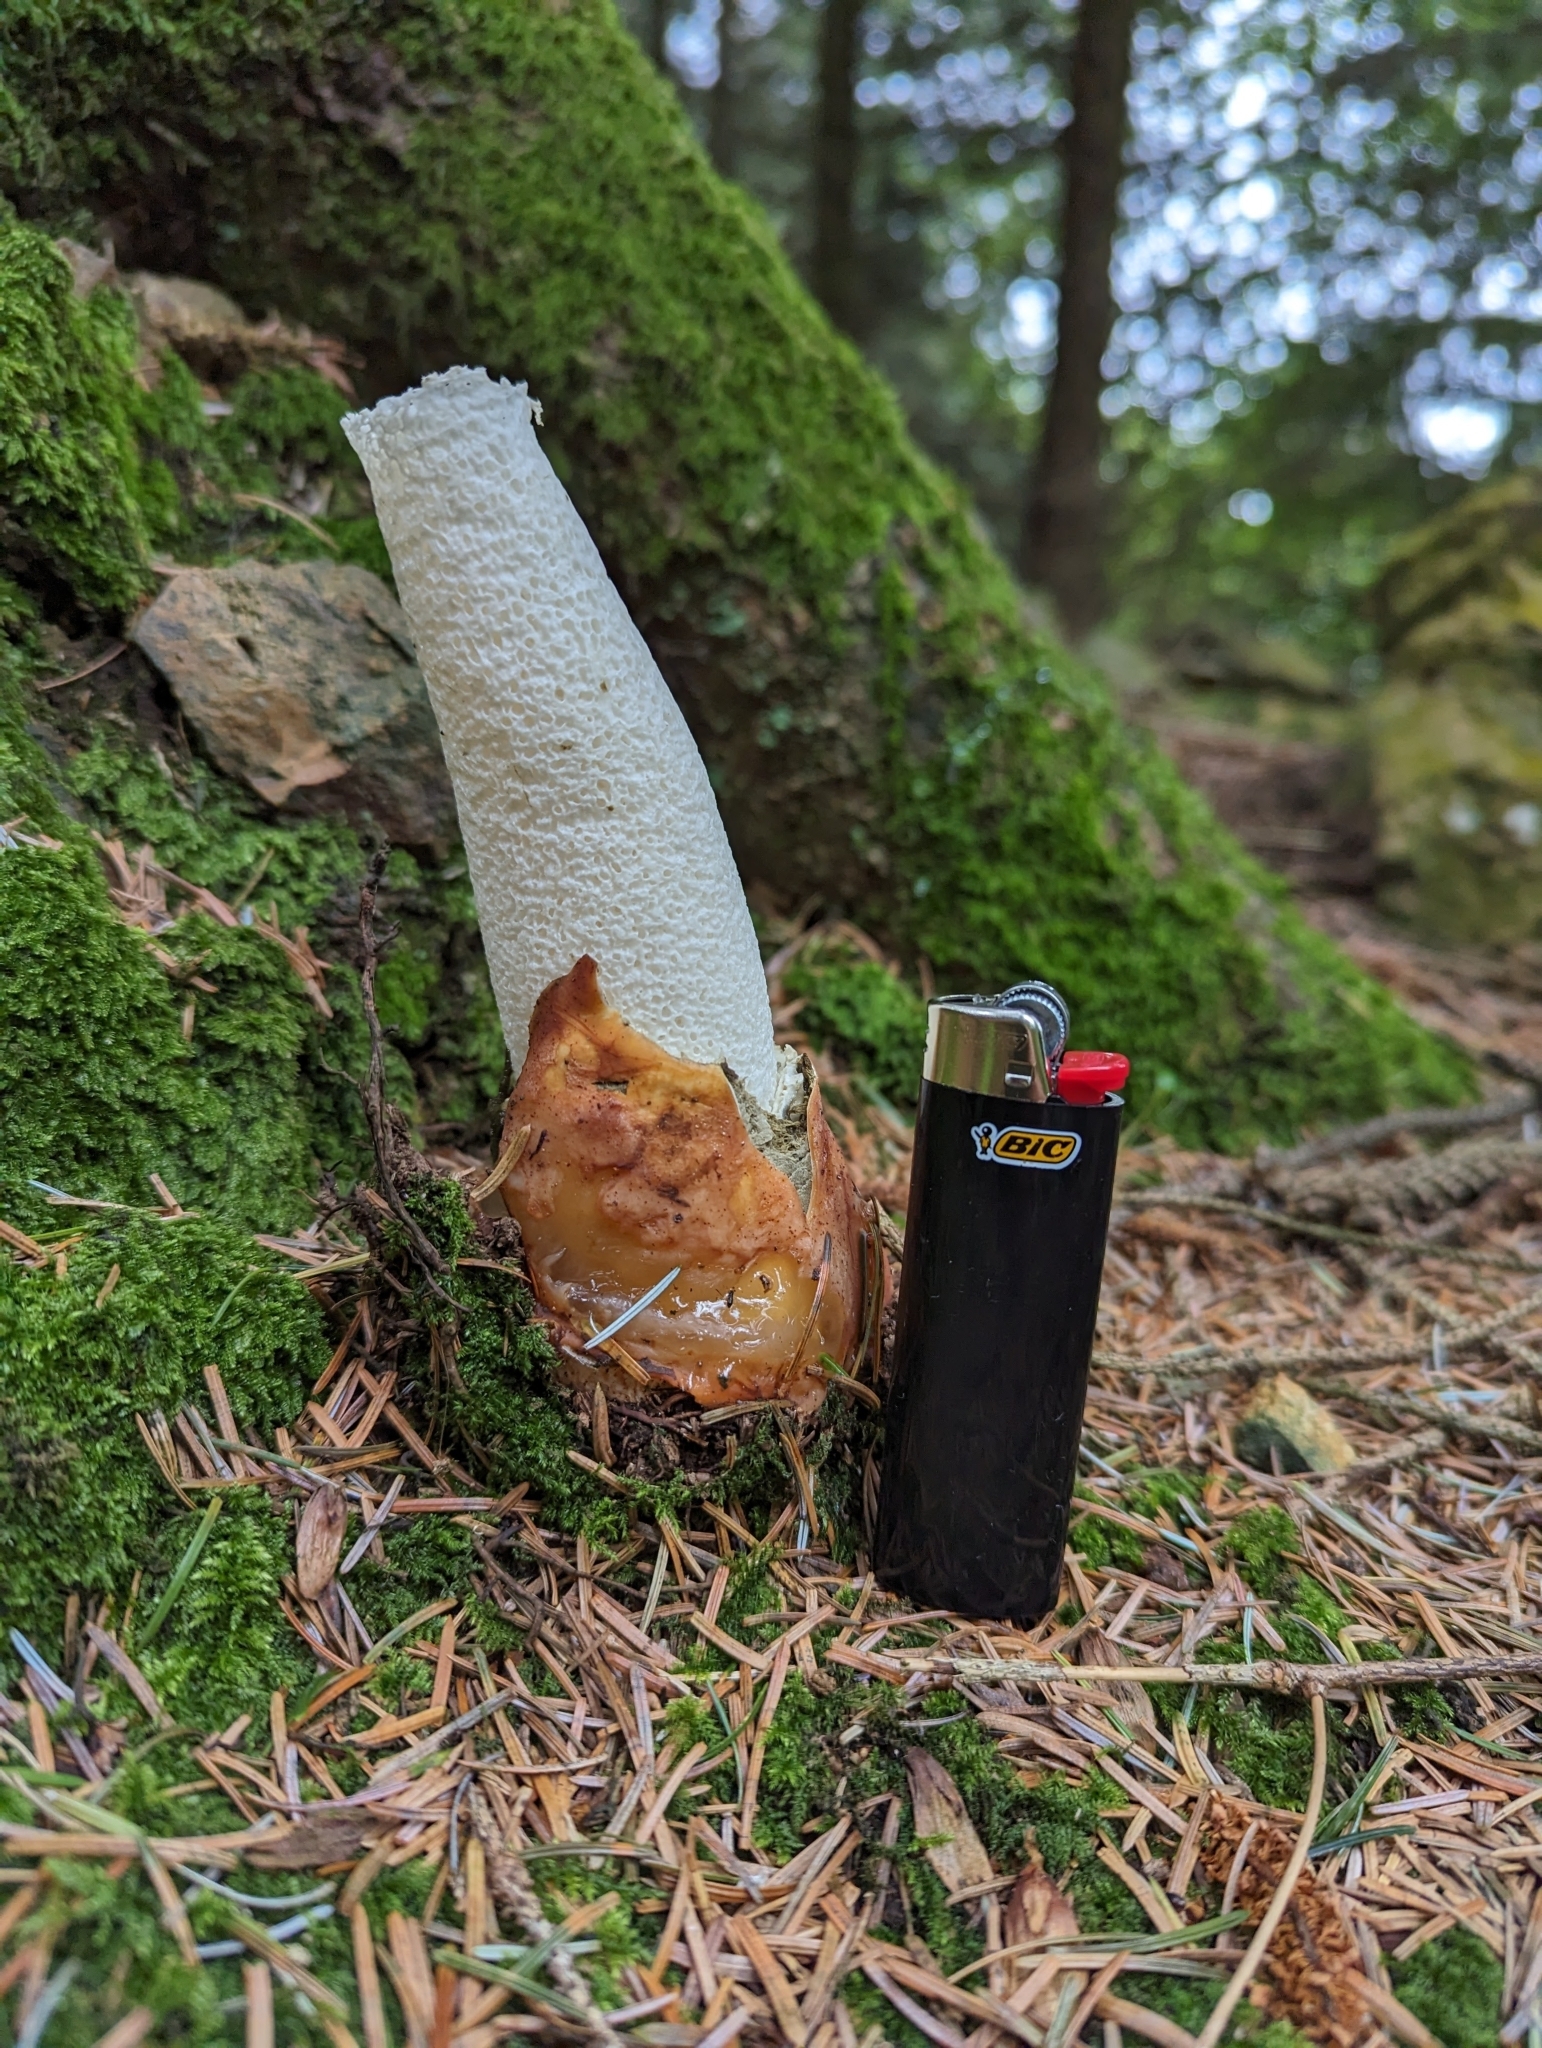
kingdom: Fungi
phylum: Basidiomycota
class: Agaricomycetes
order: Phallales
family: Phallaceae
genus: Phallus
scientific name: Phallus impudicus
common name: Common stinkhorn
